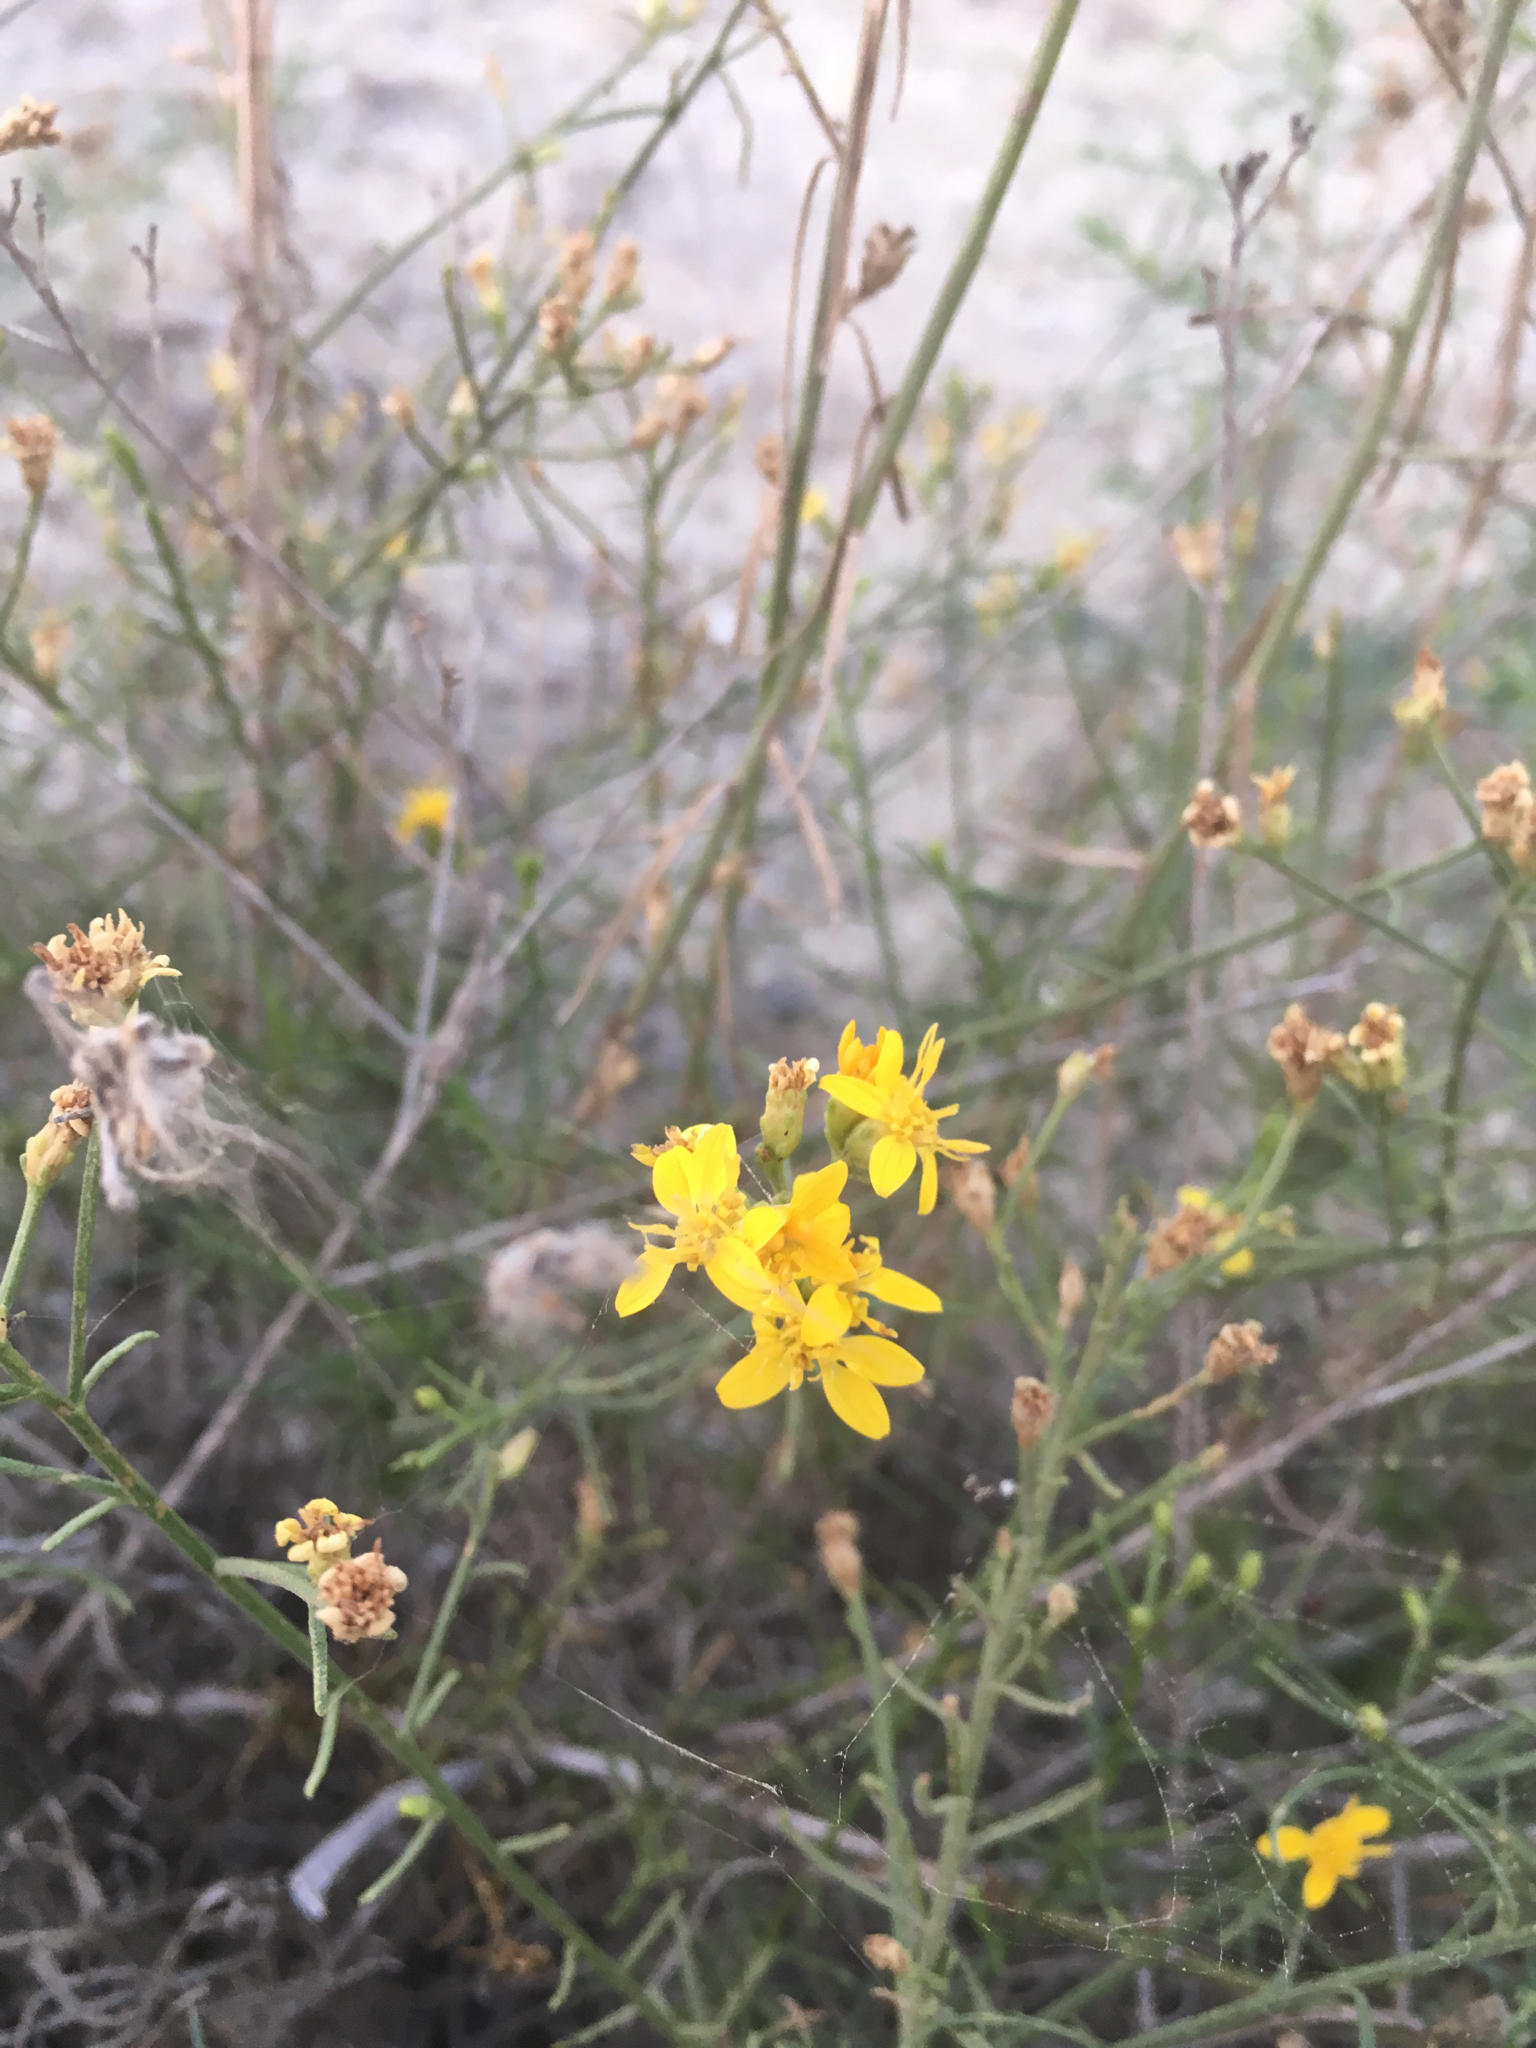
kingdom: Plantae
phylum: Tracheophyta
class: Magnoliopsida
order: Asterales
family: Asteraceae
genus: Gutierrezia
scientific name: Gutierrezia californica
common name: California matchweed
